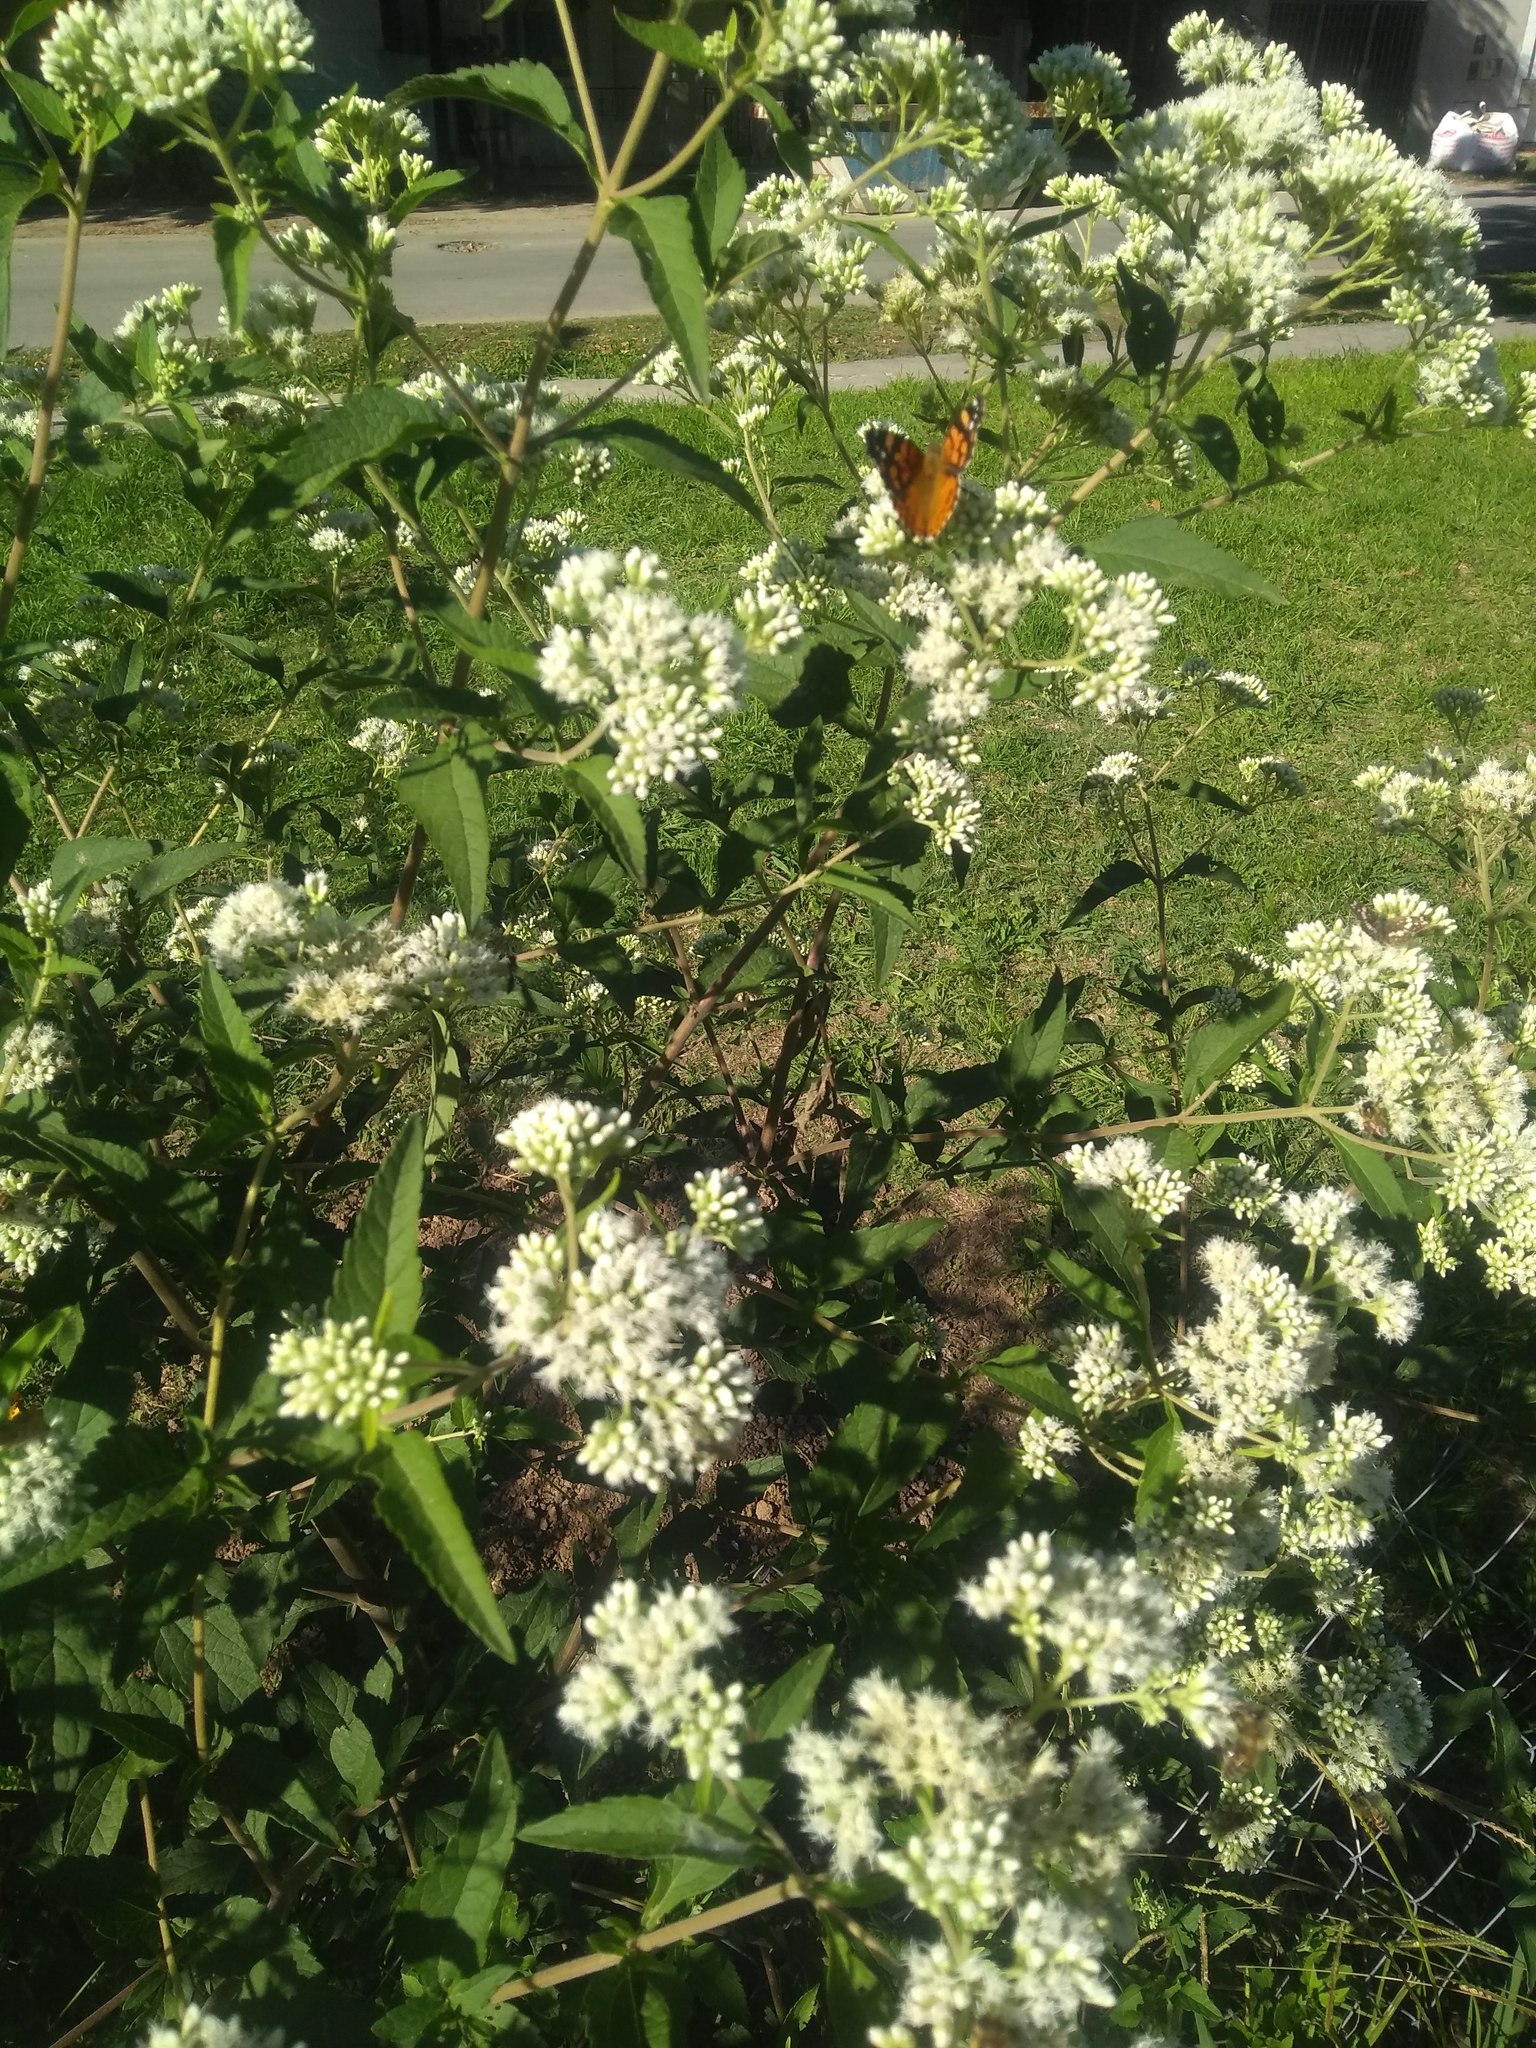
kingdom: Animalia
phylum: Arthropoda
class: Insecta
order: Lepidoptera
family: Nymphalidae
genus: Hypanartia
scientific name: Hypanartia bella
